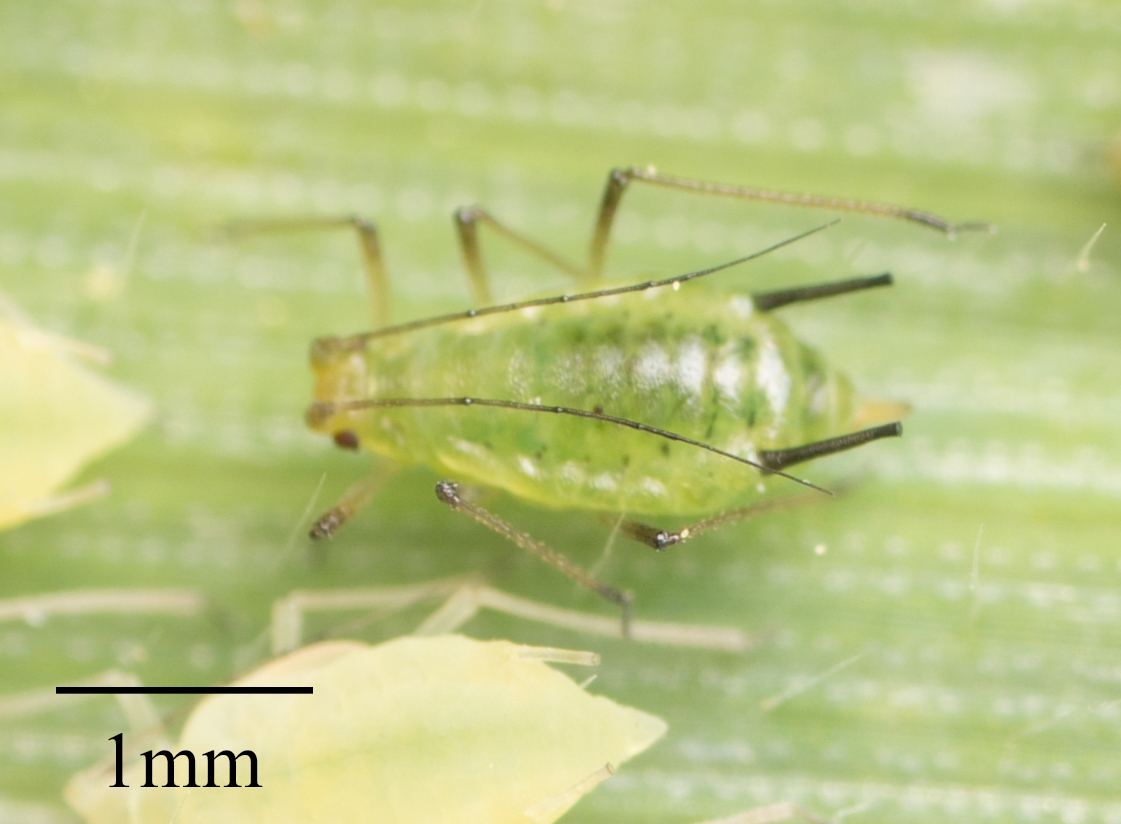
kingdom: Animalia
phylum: Arthropoda
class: Insecta
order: Hemiptera
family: Aphididae
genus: Sitobion
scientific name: Sitobion fragariae
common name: Blackberry cereal aphid
